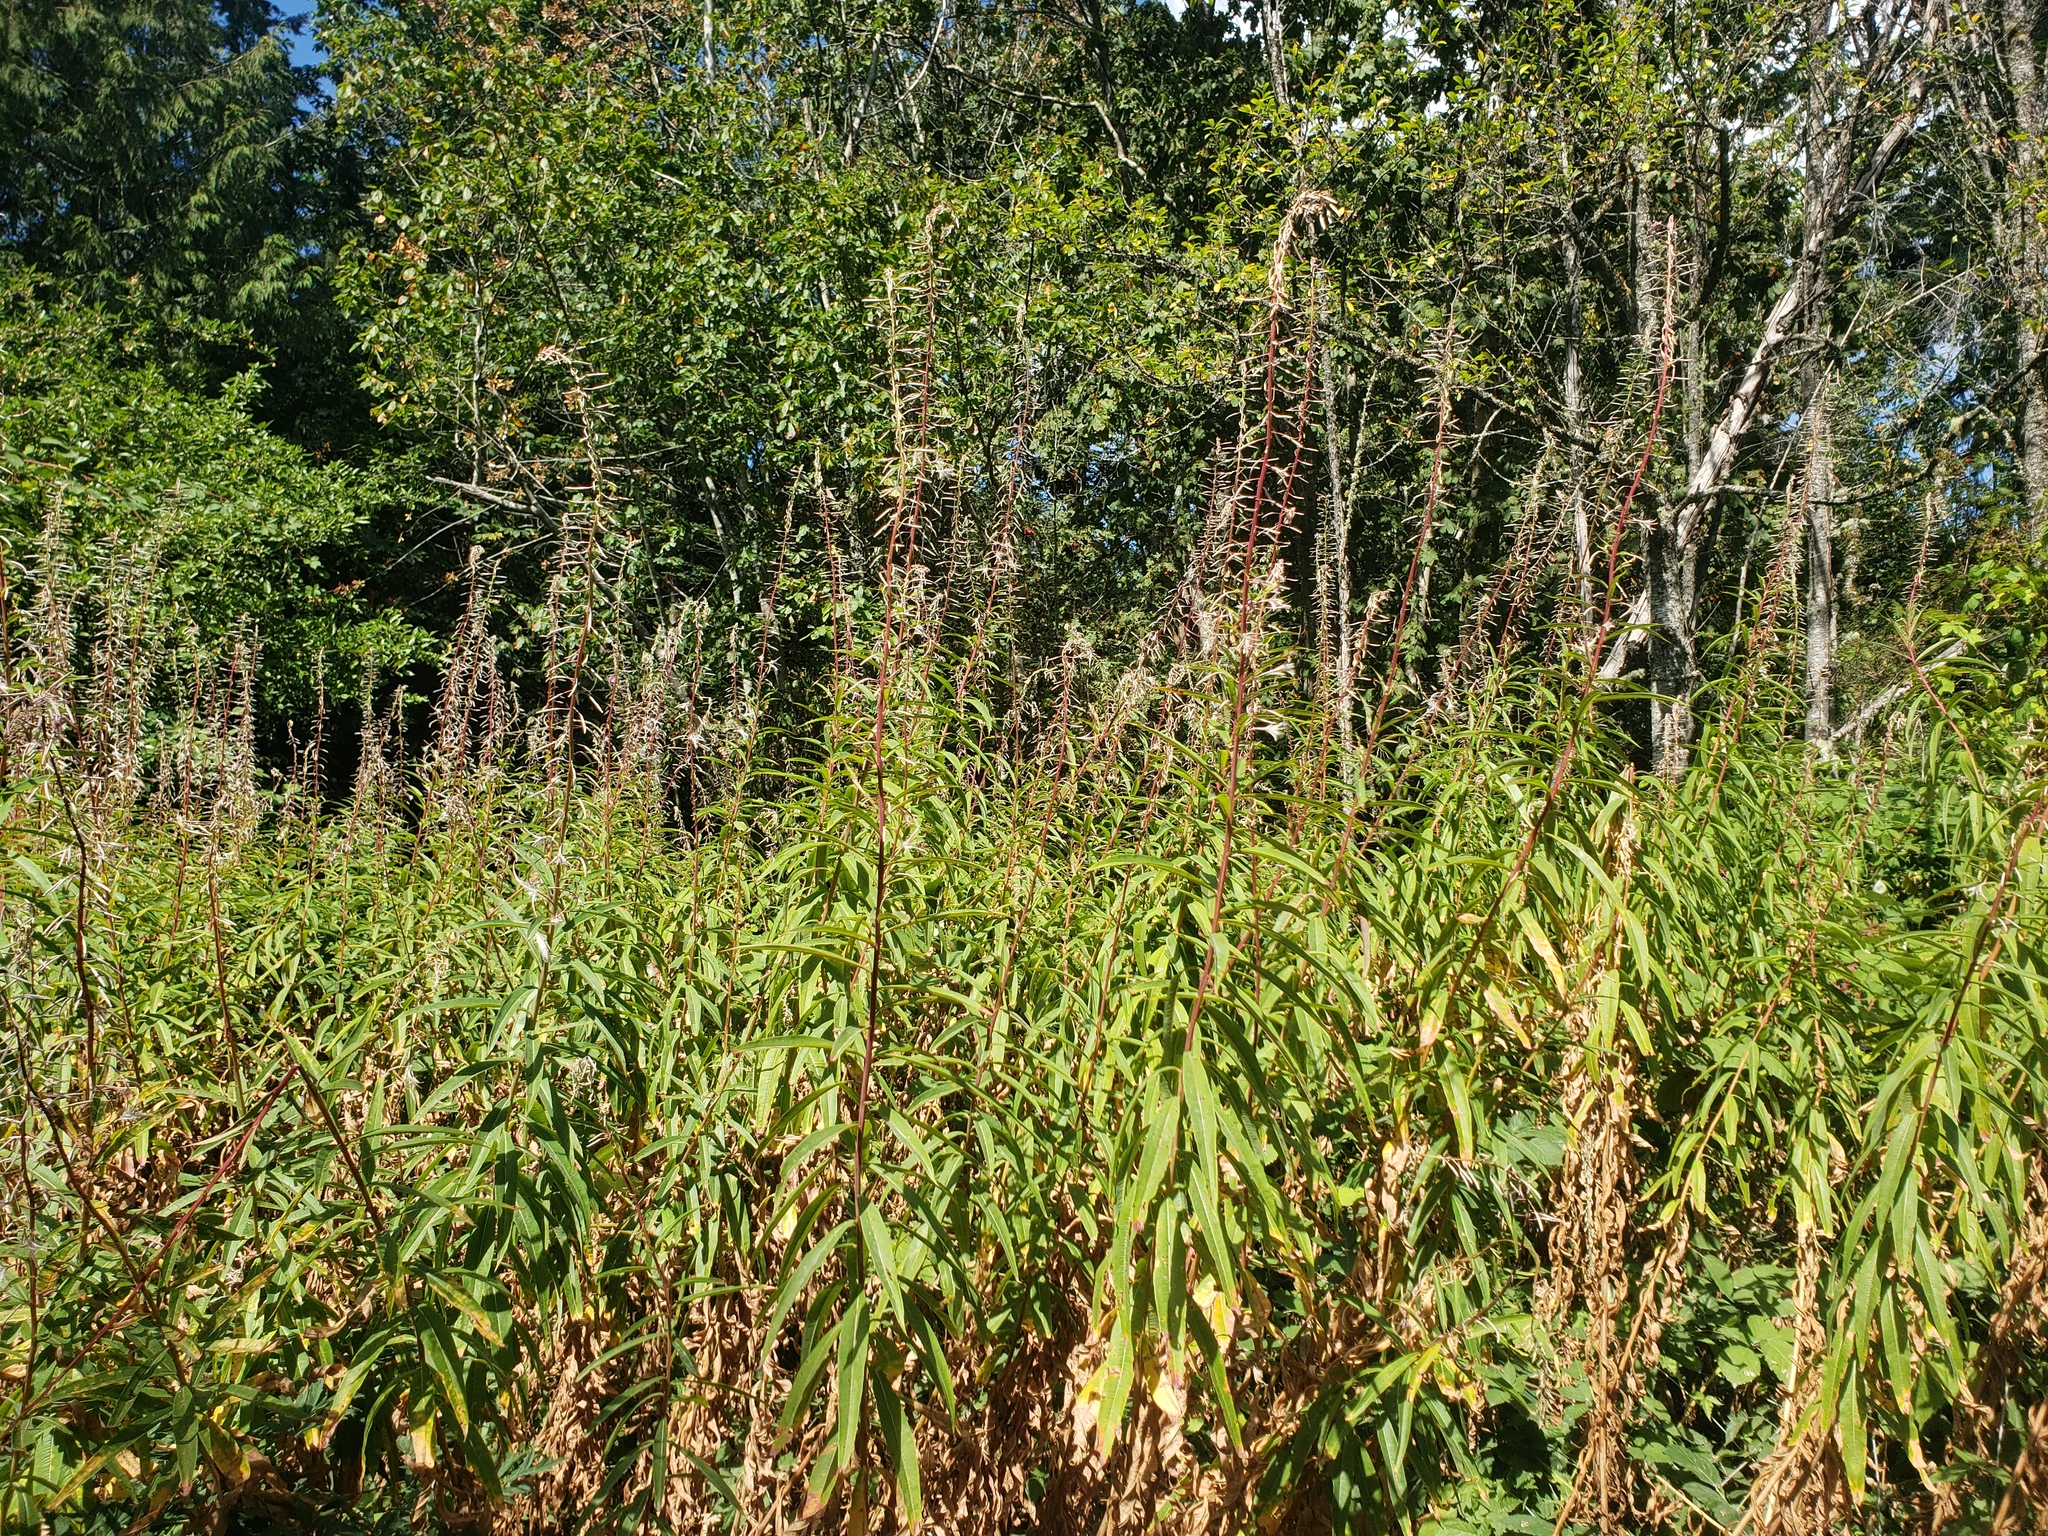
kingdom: Plantae
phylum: Tracheophyta
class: Magnoliopsida
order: Myrtales
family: Onagraceae
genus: Chamaenerion
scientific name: Chamaenerion angustifolium
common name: Fireweed
